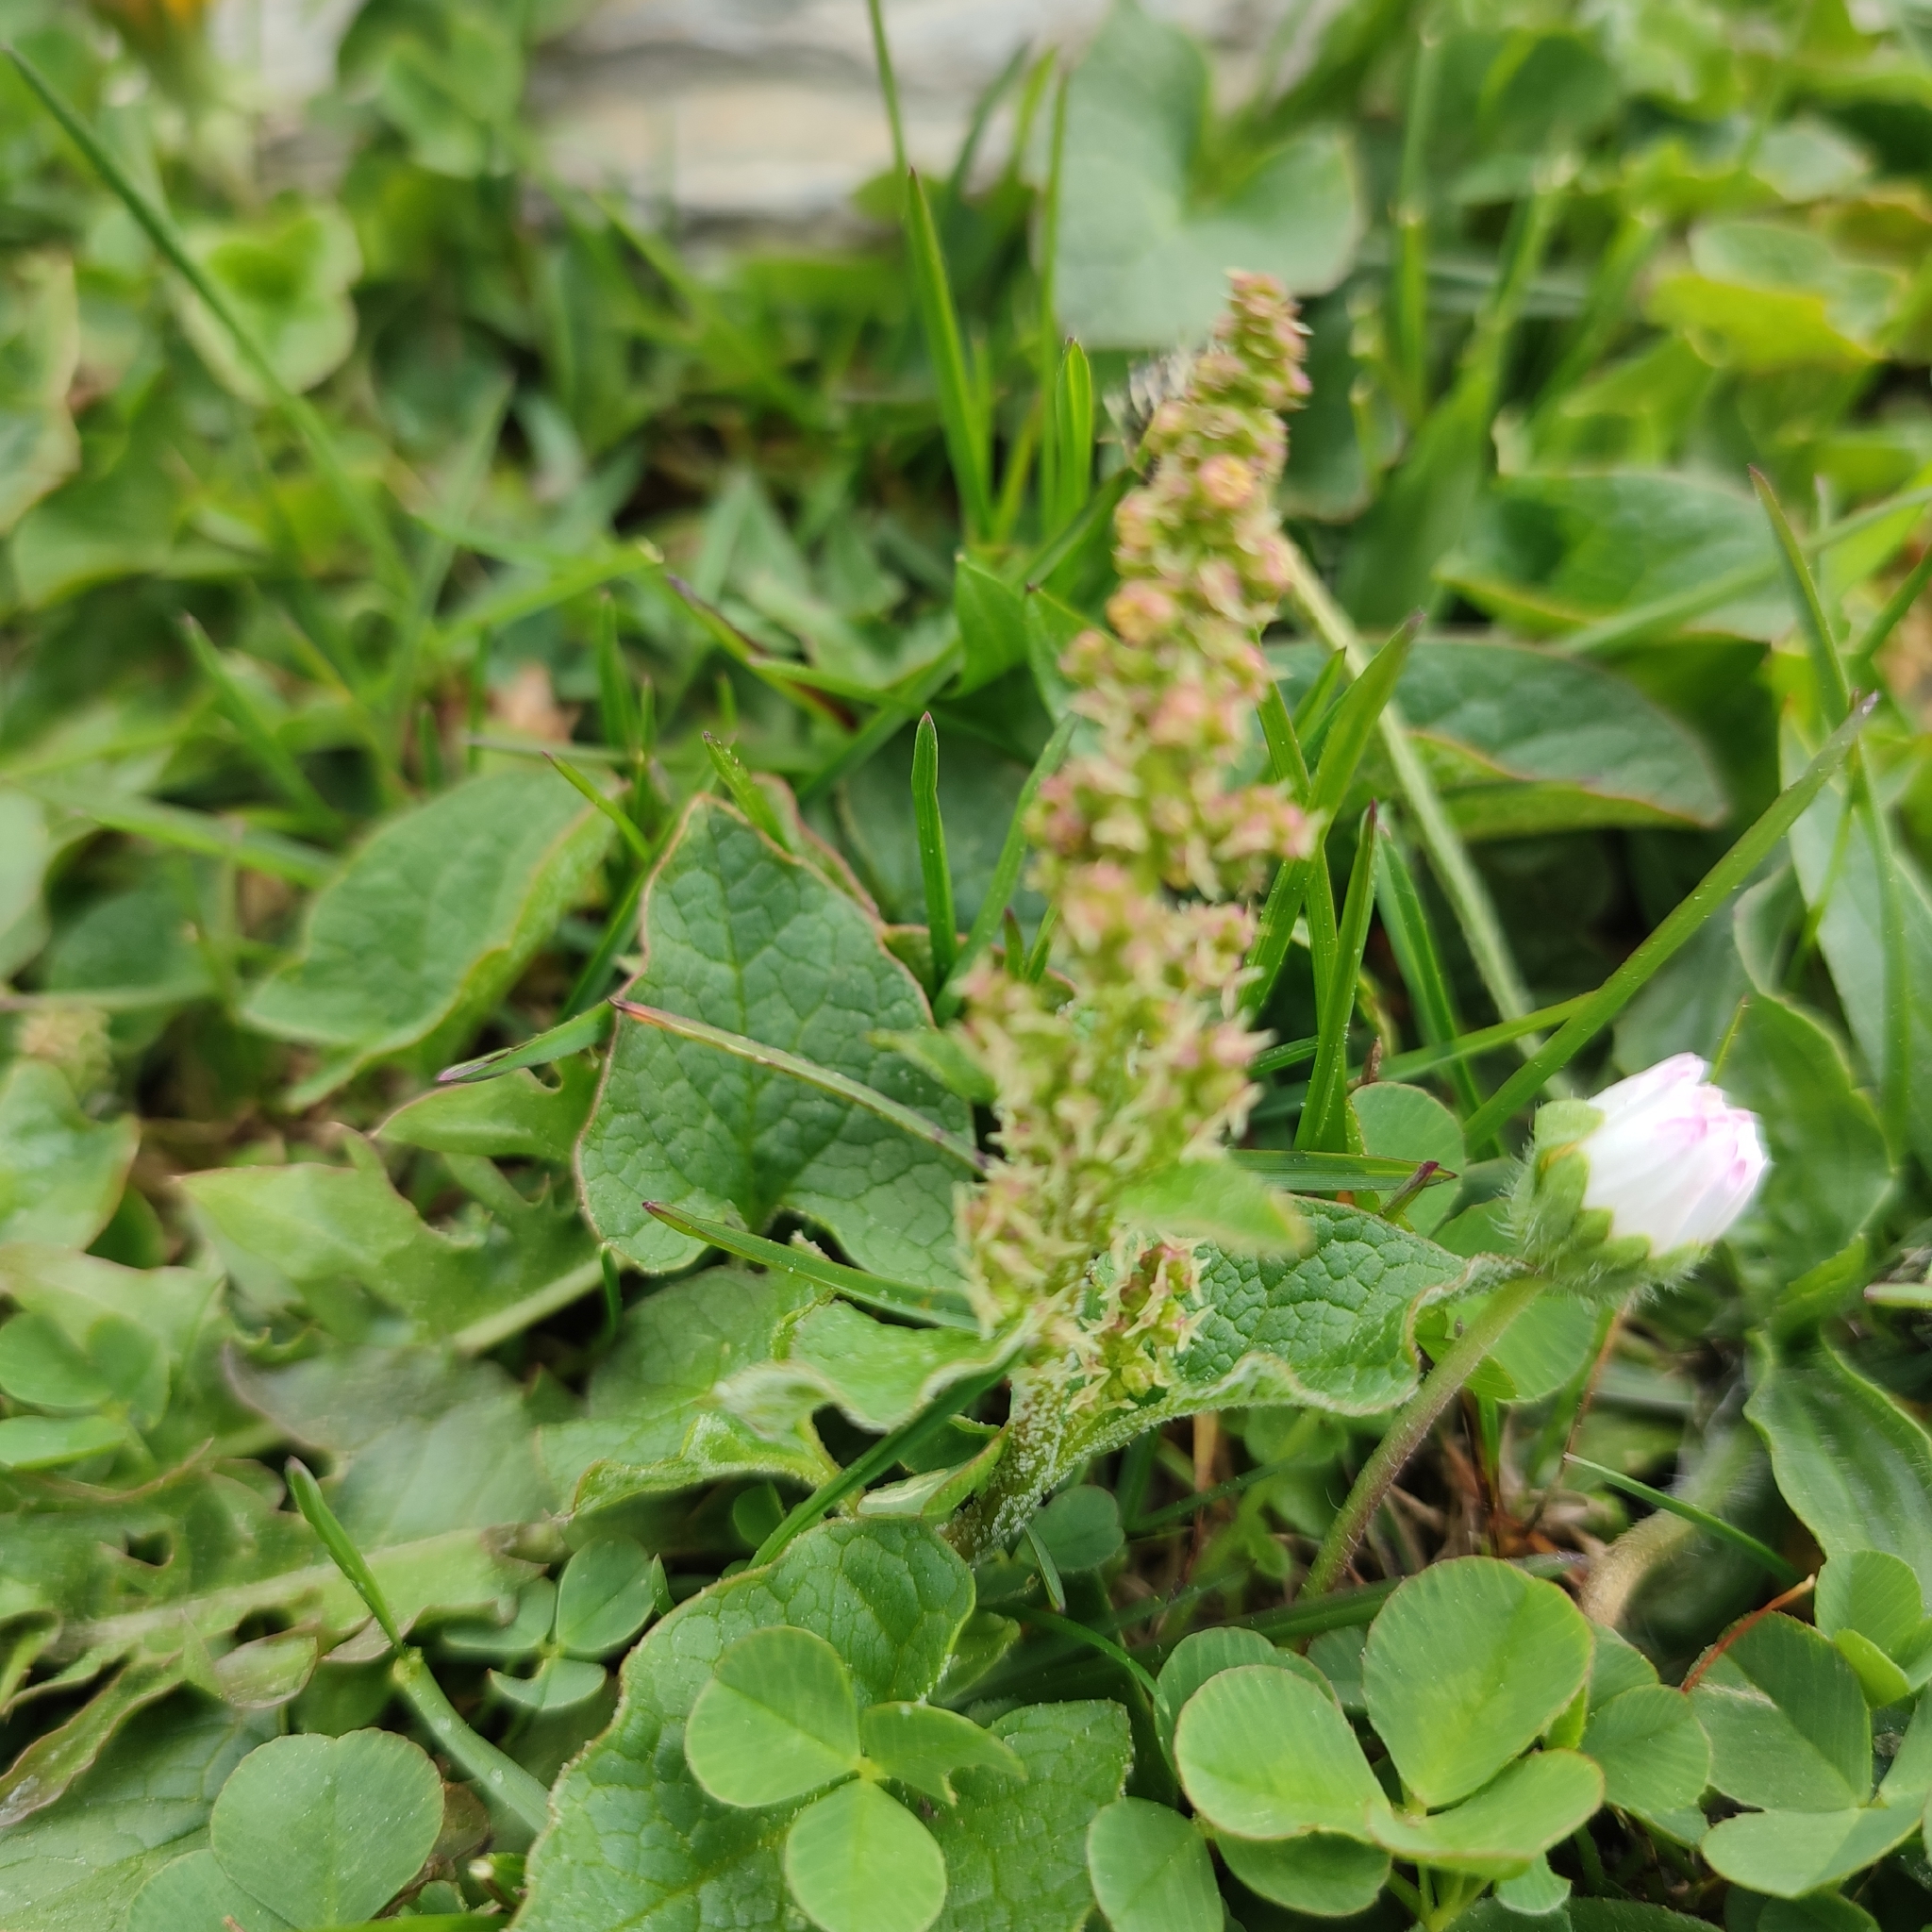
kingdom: Plantae
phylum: Tracheophyta
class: Magnoliopsida
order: Caryophyllales
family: Amaranthaceae
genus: Blitum
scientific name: Blitum bonus-henricus
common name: Good king henry
